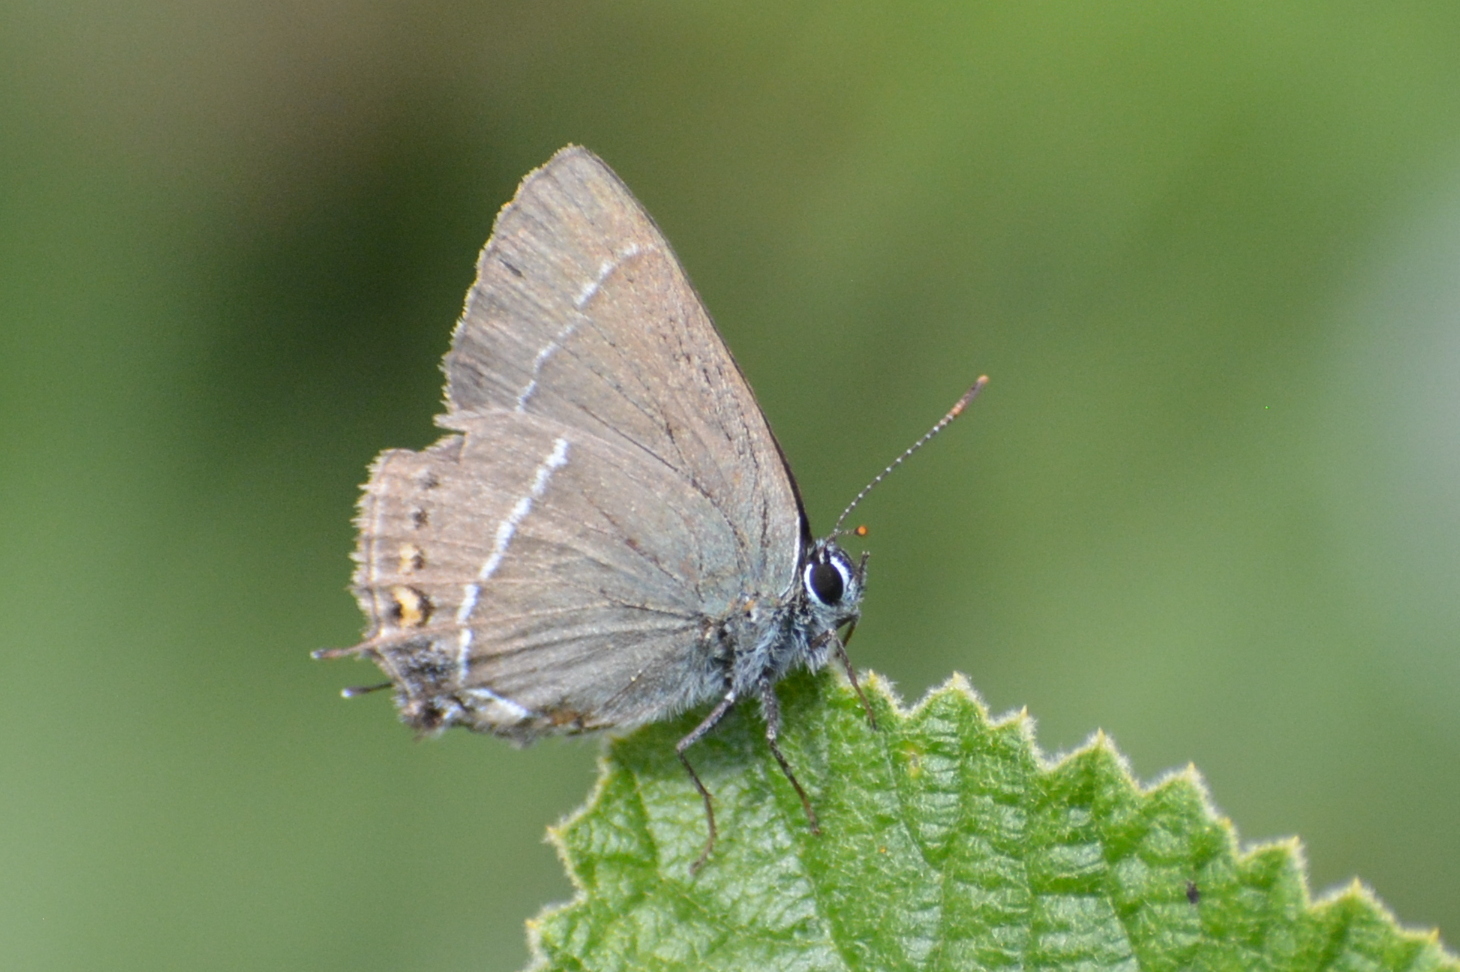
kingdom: Animalia
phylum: Arthropoda
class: Insecta
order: Lepidoptera
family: Lycaenidae
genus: Tuttiola
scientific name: Tuttiola spini
